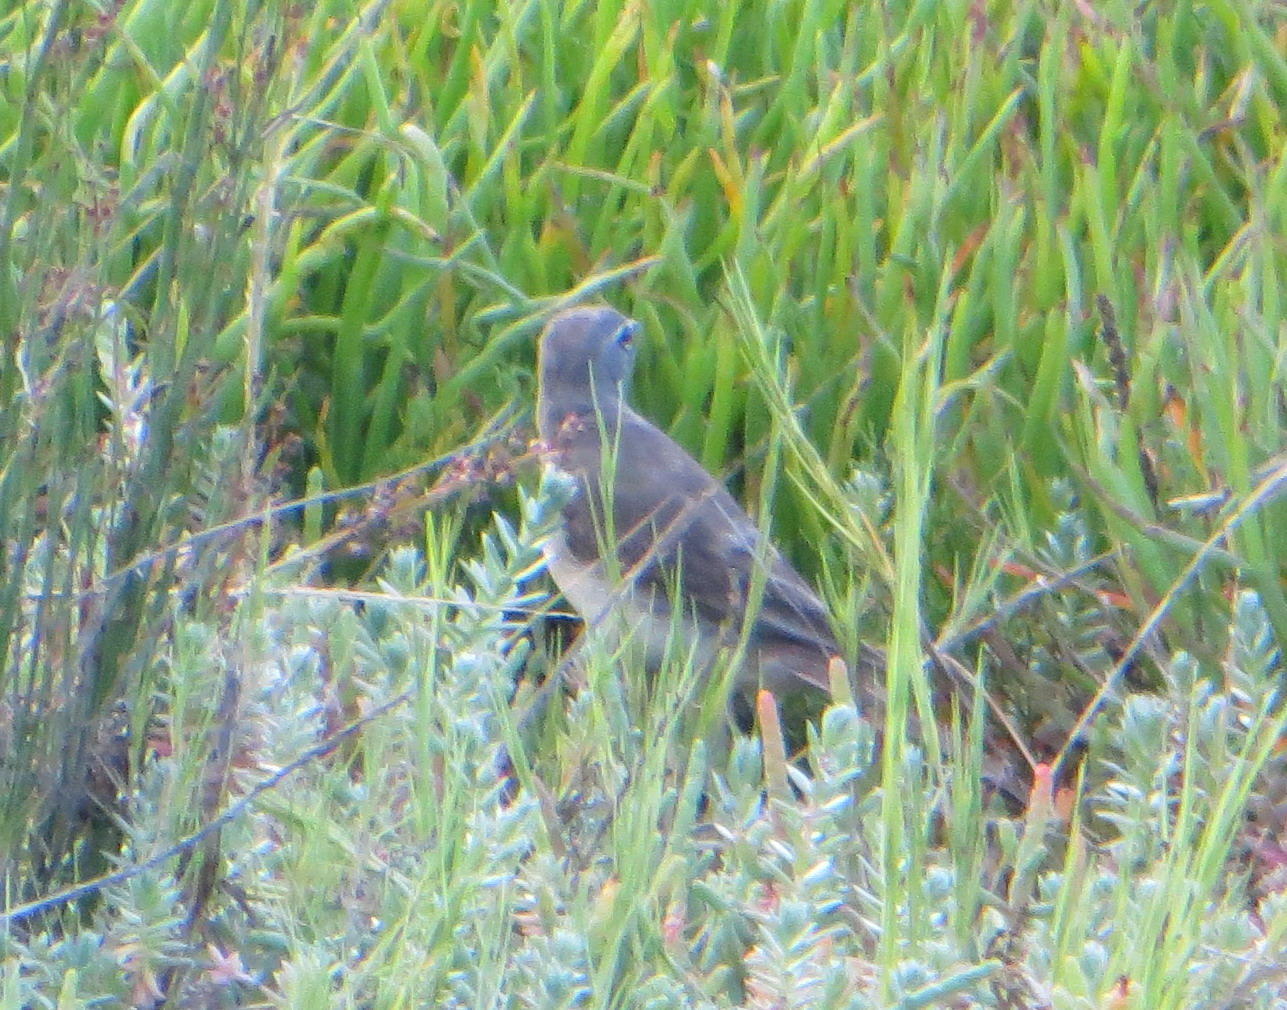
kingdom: Animalia
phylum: Chordata
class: Aves
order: Passeriformes
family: Motacillidae
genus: Motacilla
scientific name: Motacilla capensis
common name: Cape wagtail
